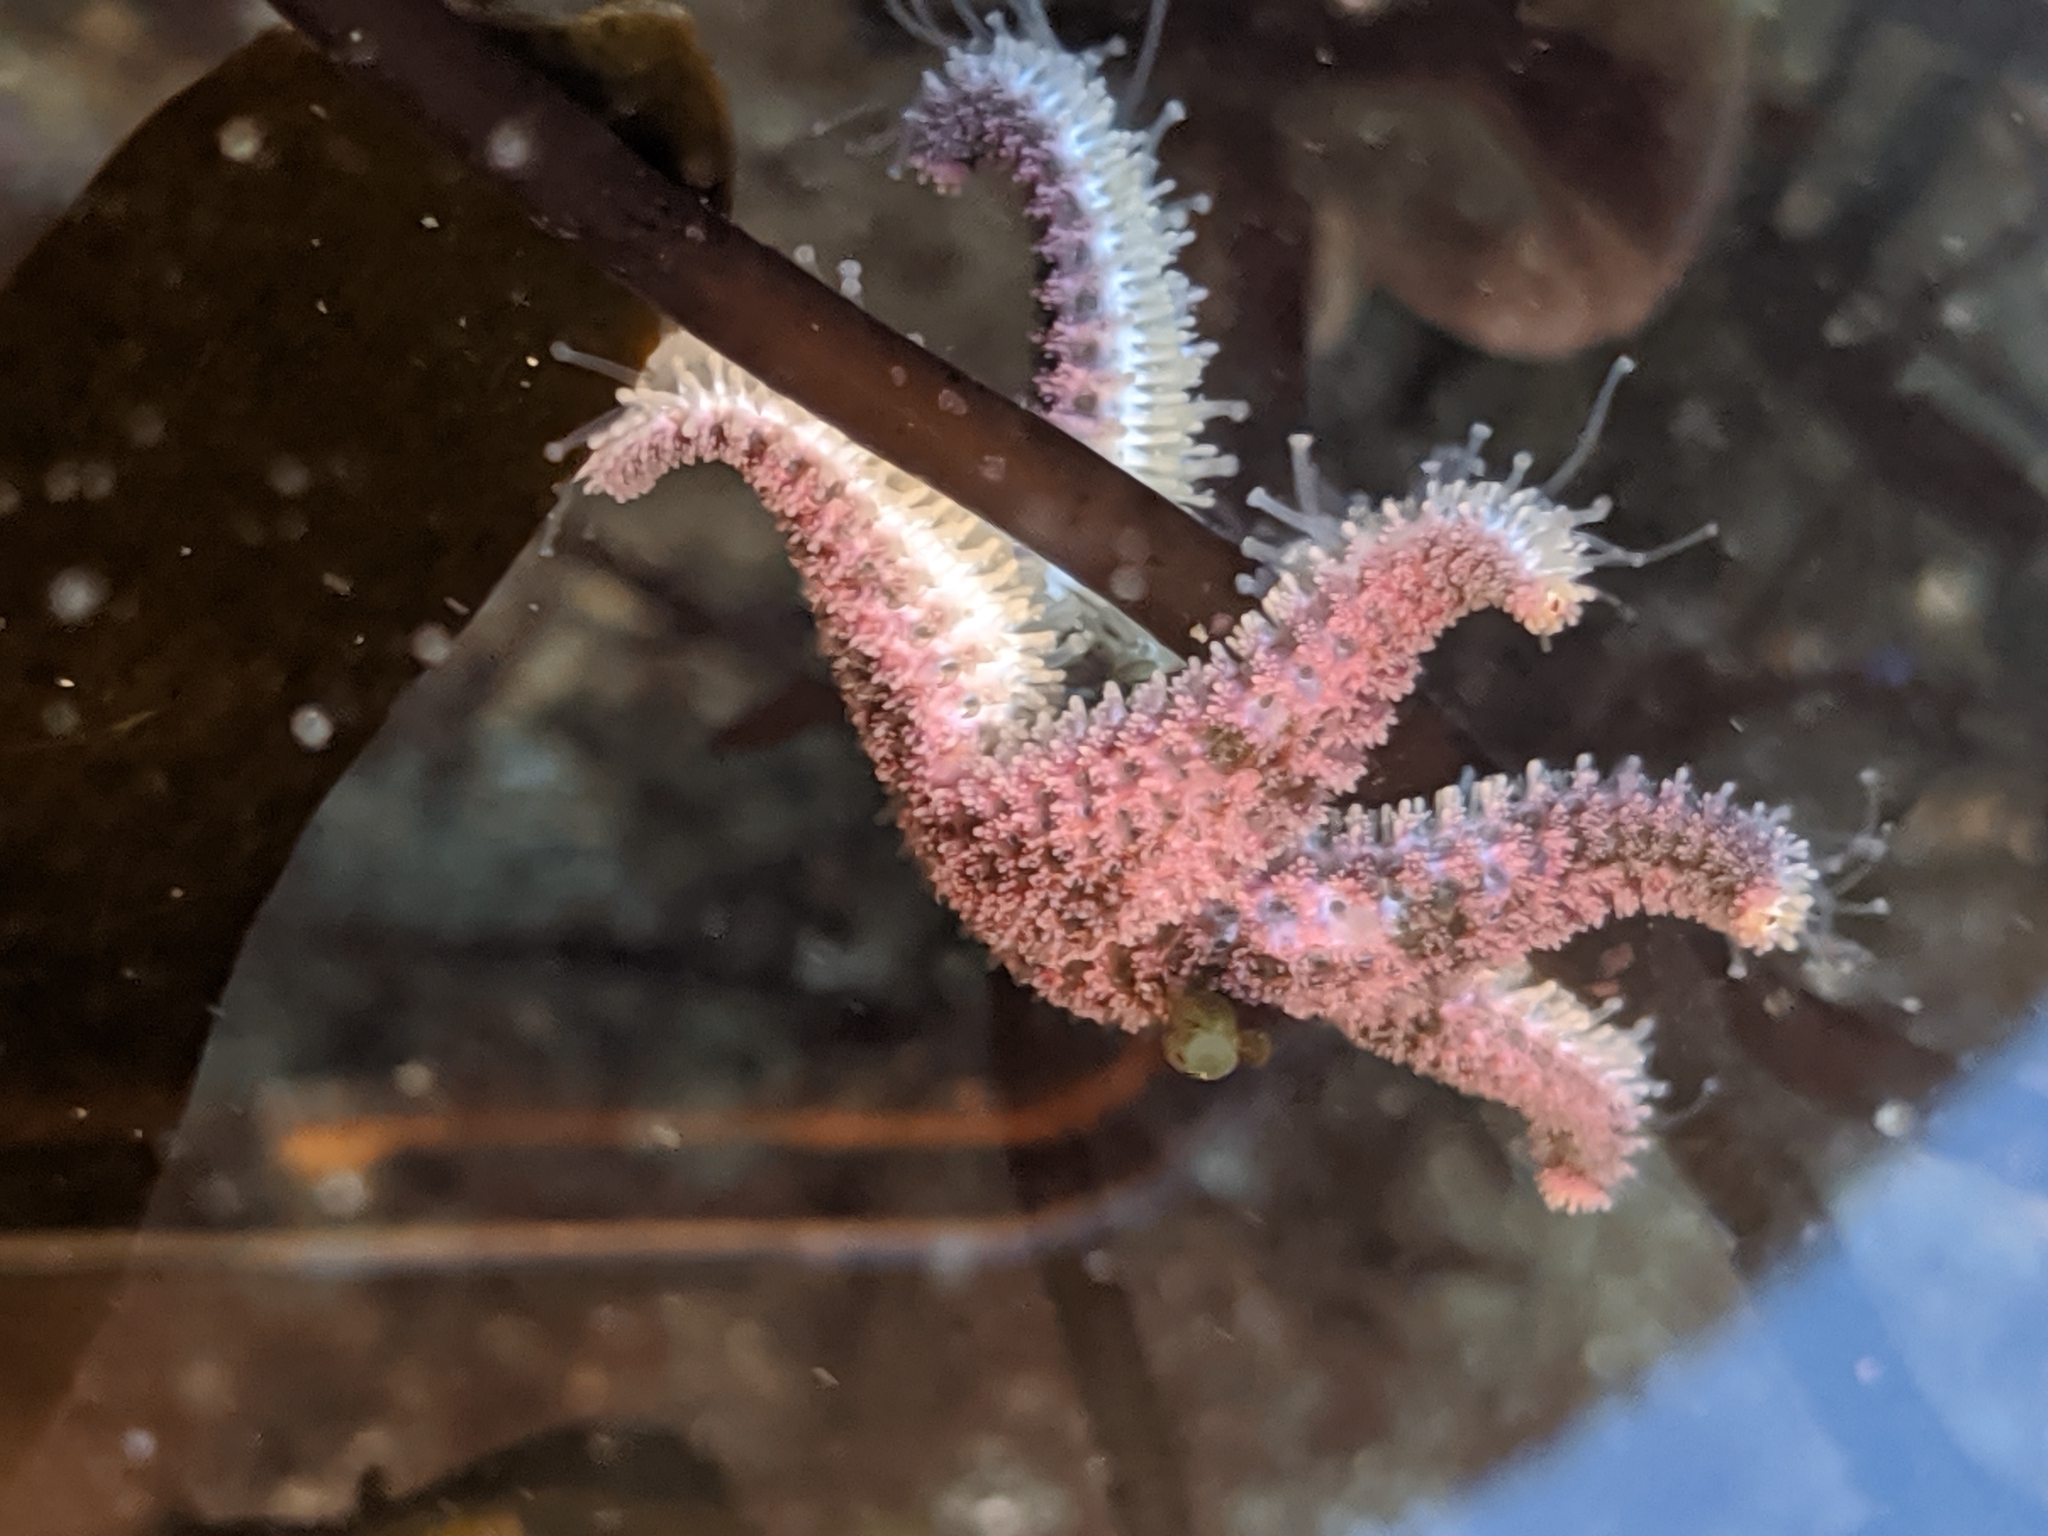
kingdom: Animalia
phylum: Echinodermata
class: Asteroidea
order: Forcipulatida
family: Asteriidae
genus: Leptasterias
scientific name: Leptasterias hexactis
